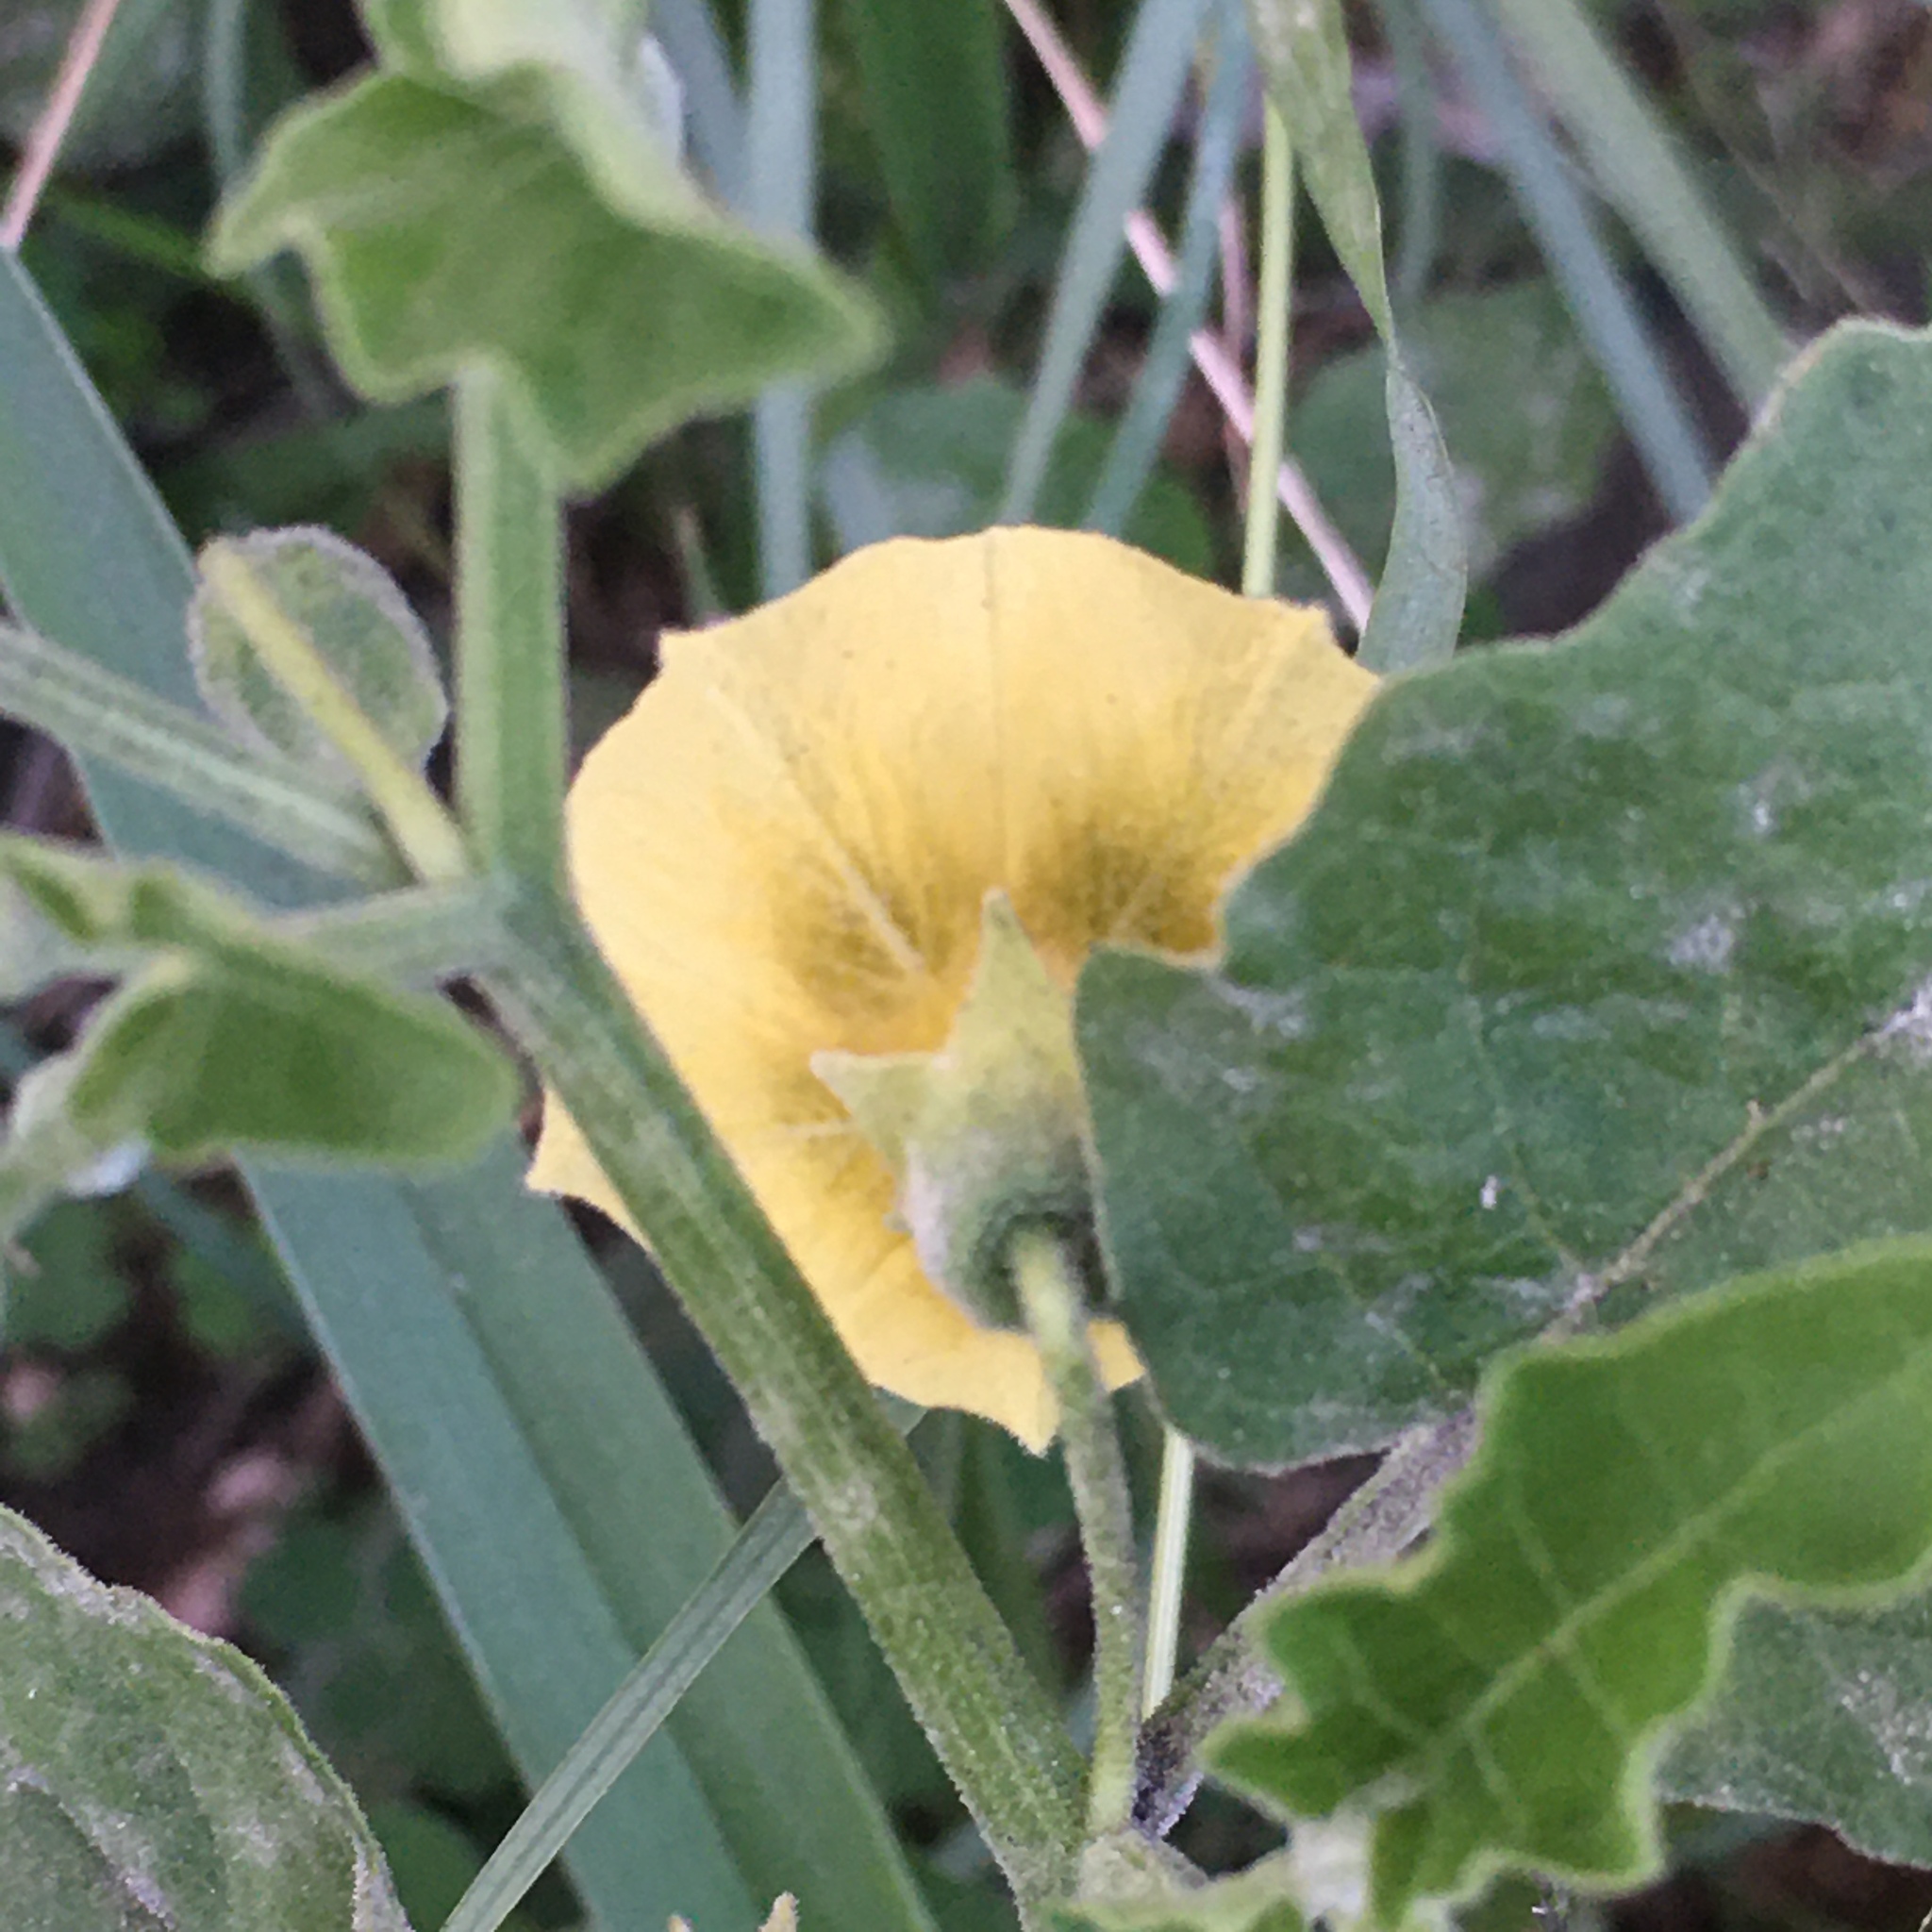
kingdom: Plantae
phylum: Tracheophyta
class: Magnoliopsida
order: Solanales
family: Solanaceae
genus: Physalis
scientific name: Physalis viscosa
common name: Stellate ground-cherry
